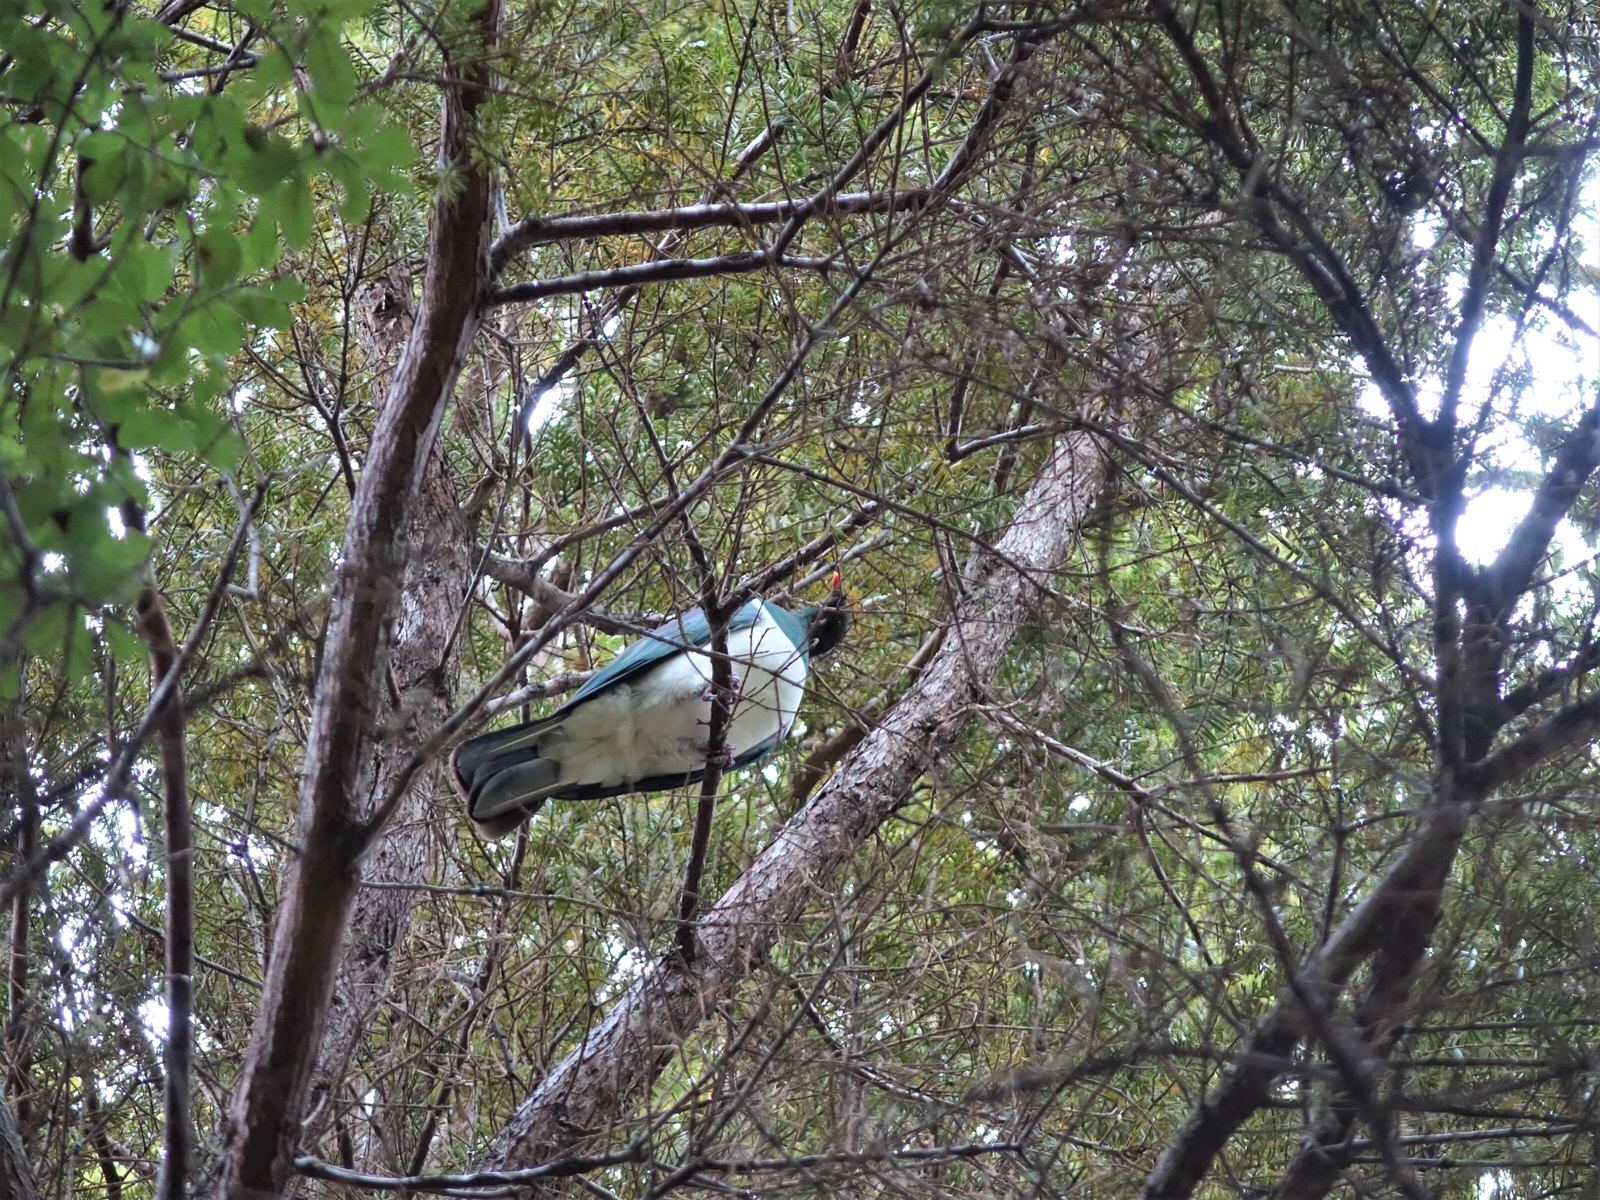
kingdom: Animalia
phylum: Chordata
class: Aves
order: Columbiformes
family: Columbidae
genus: Hemiphaga
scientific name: Hemiphaga novaeseelandiae
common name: New zealand pigeon
